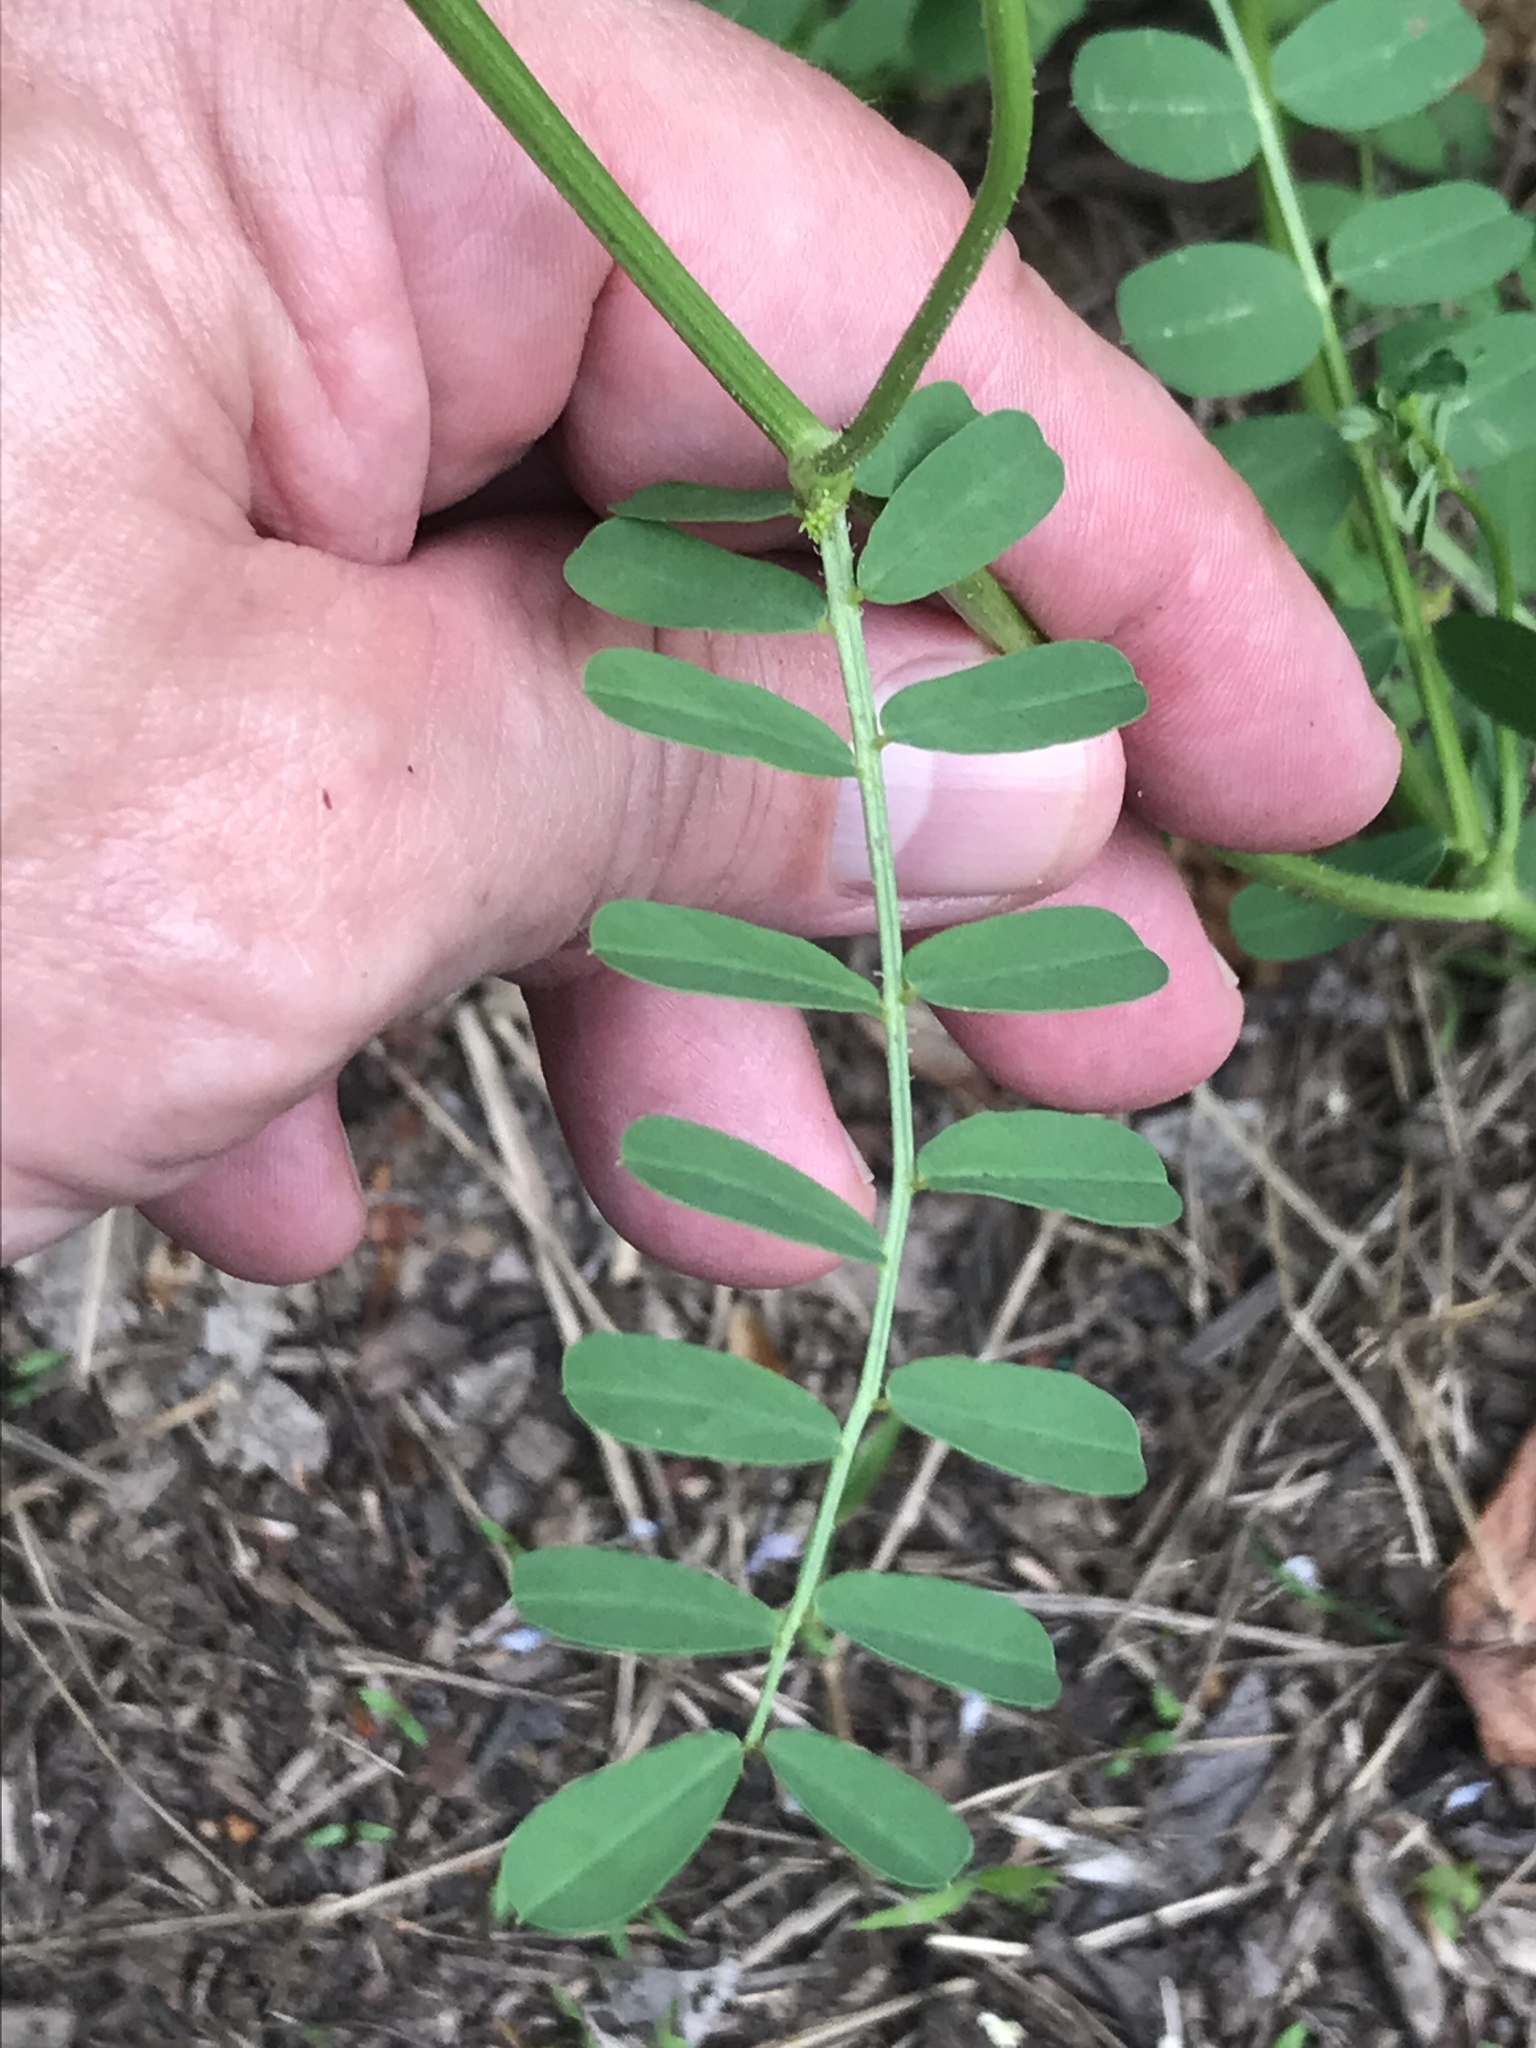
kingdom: Plantae
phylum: Tracheophyta
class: Magnoliopsida
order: Fabales
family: Fabaceae
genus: Coronilla
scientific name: Coronilla varia
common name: Crownvetch
